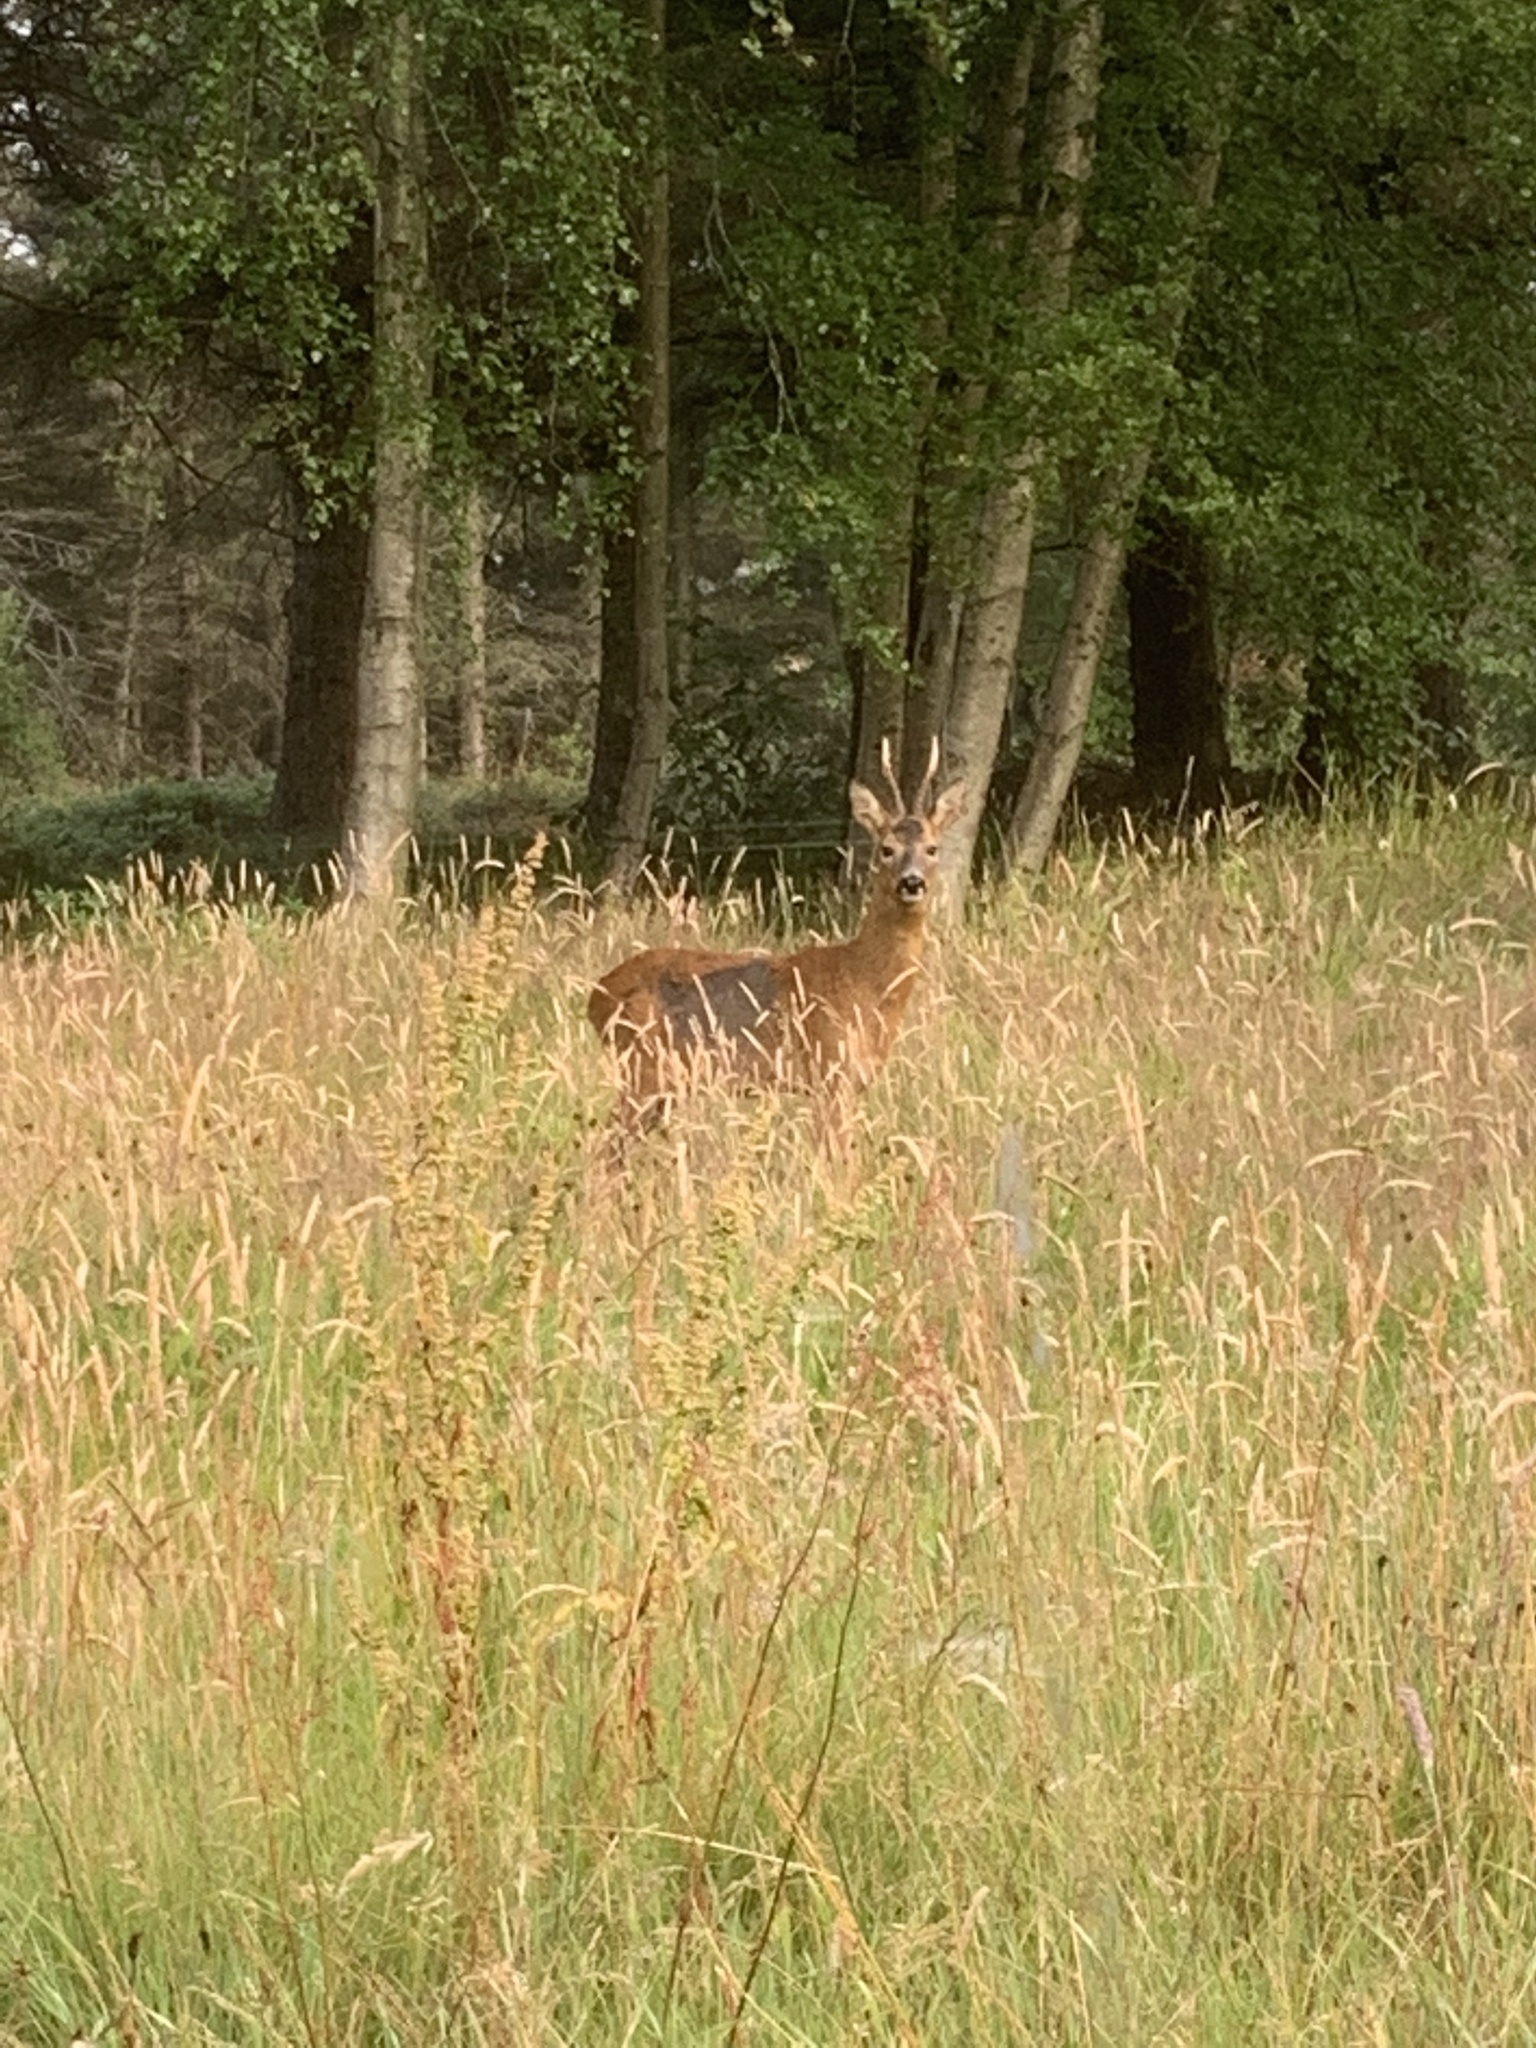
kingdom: Animalia
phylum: Chordata
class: Mammalia
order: Artiodactyla
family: Cervidae
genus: Capreolus
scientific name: Capreolus capreolus
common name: Western roe deer
